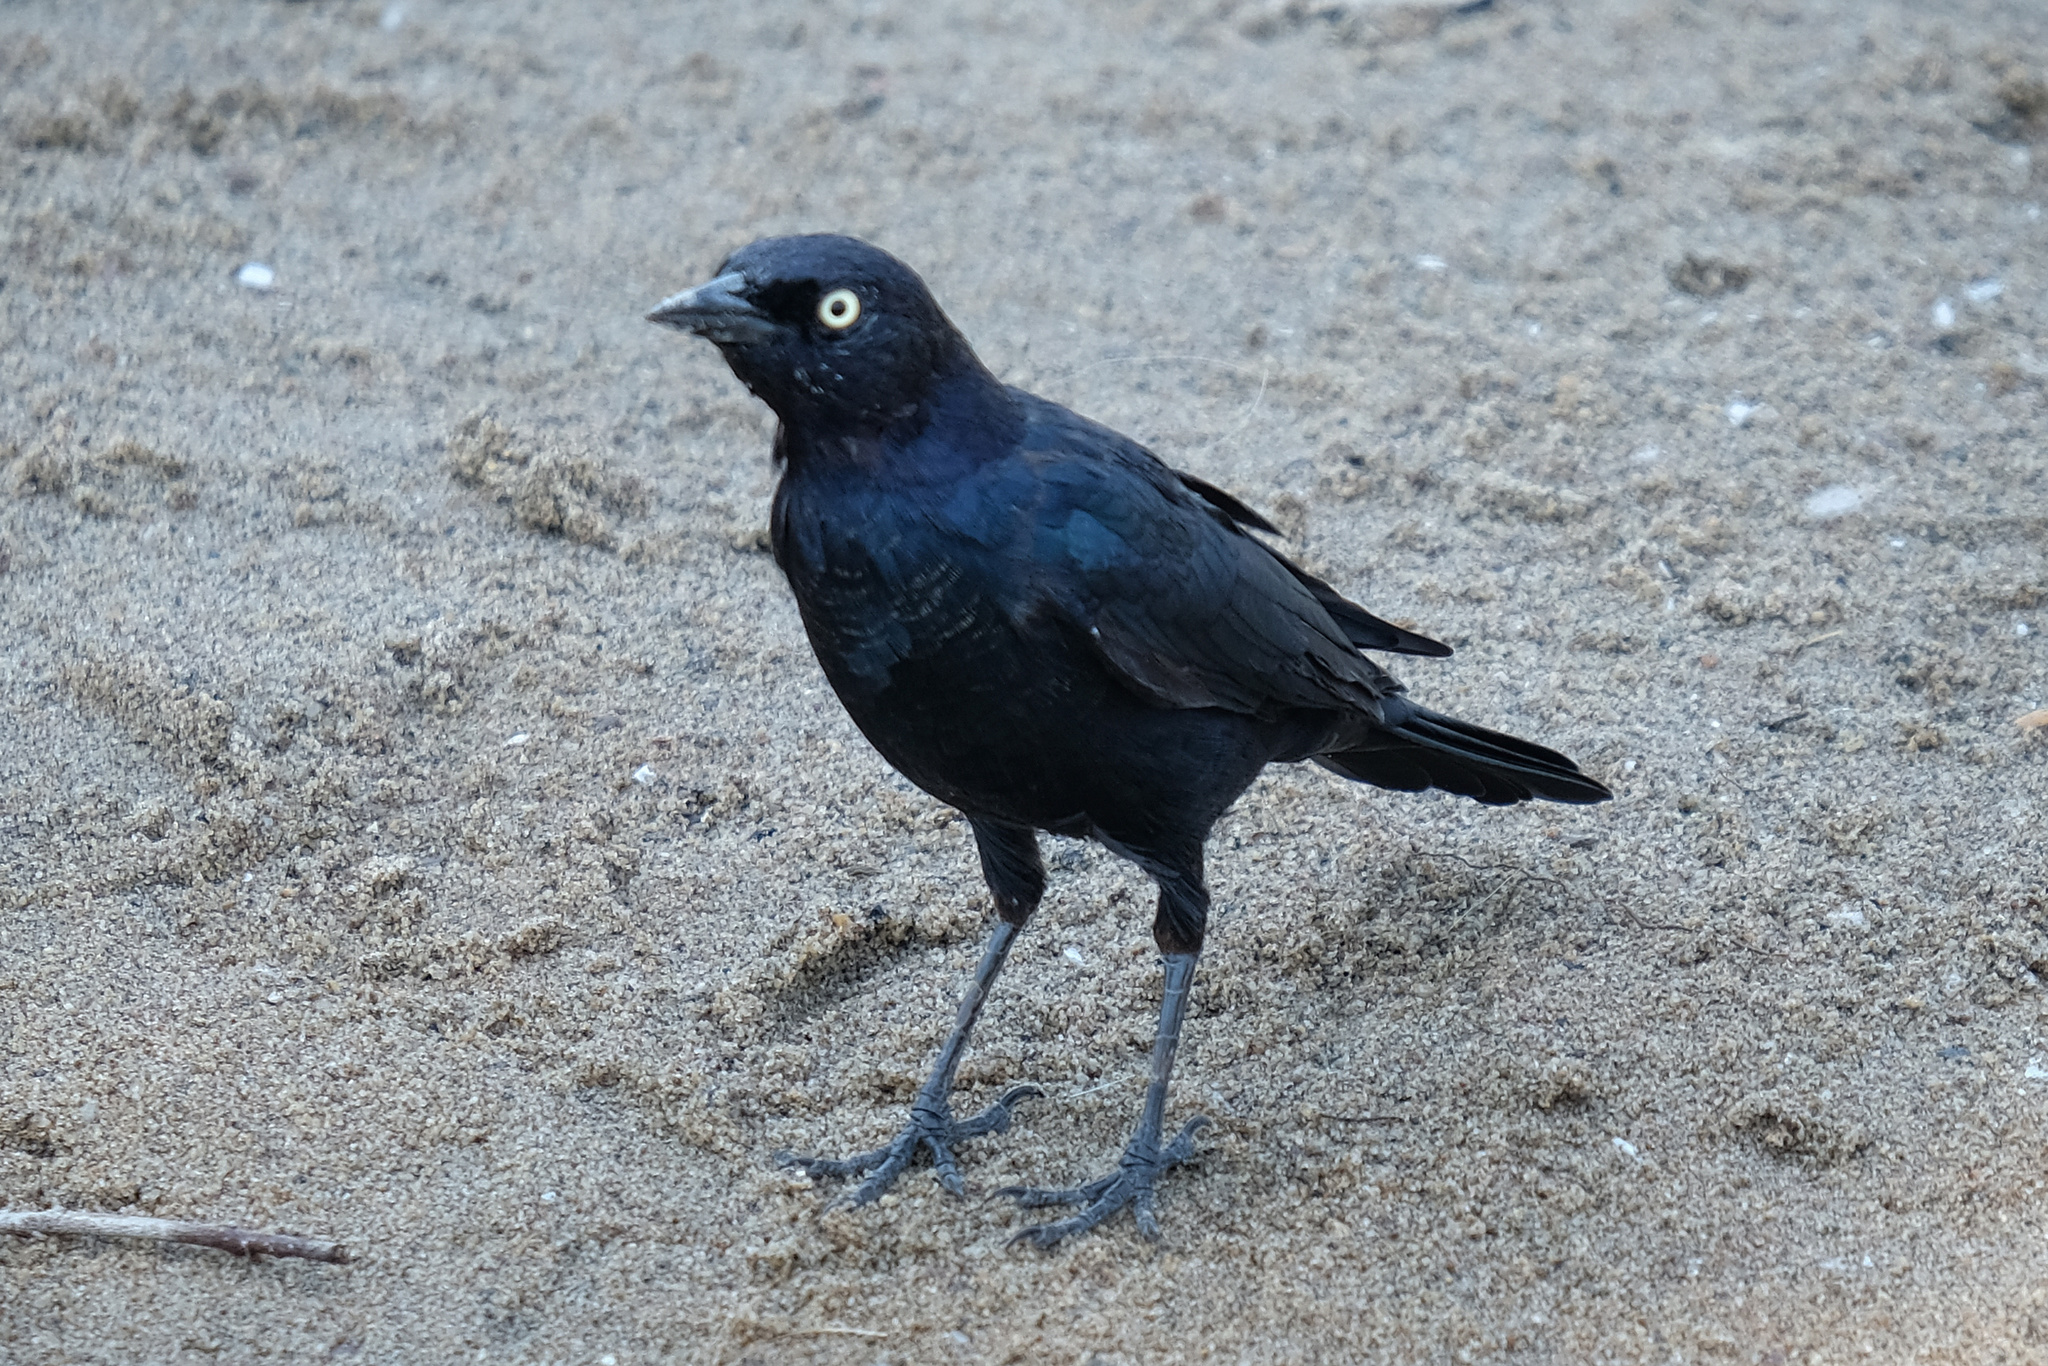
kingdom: Animalia
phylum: Chordata
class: Aves
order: Passeriformes
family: Icteridae
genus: Euphagus
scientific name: Euphagus cyanocephalus
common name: Brewer's blackbird
